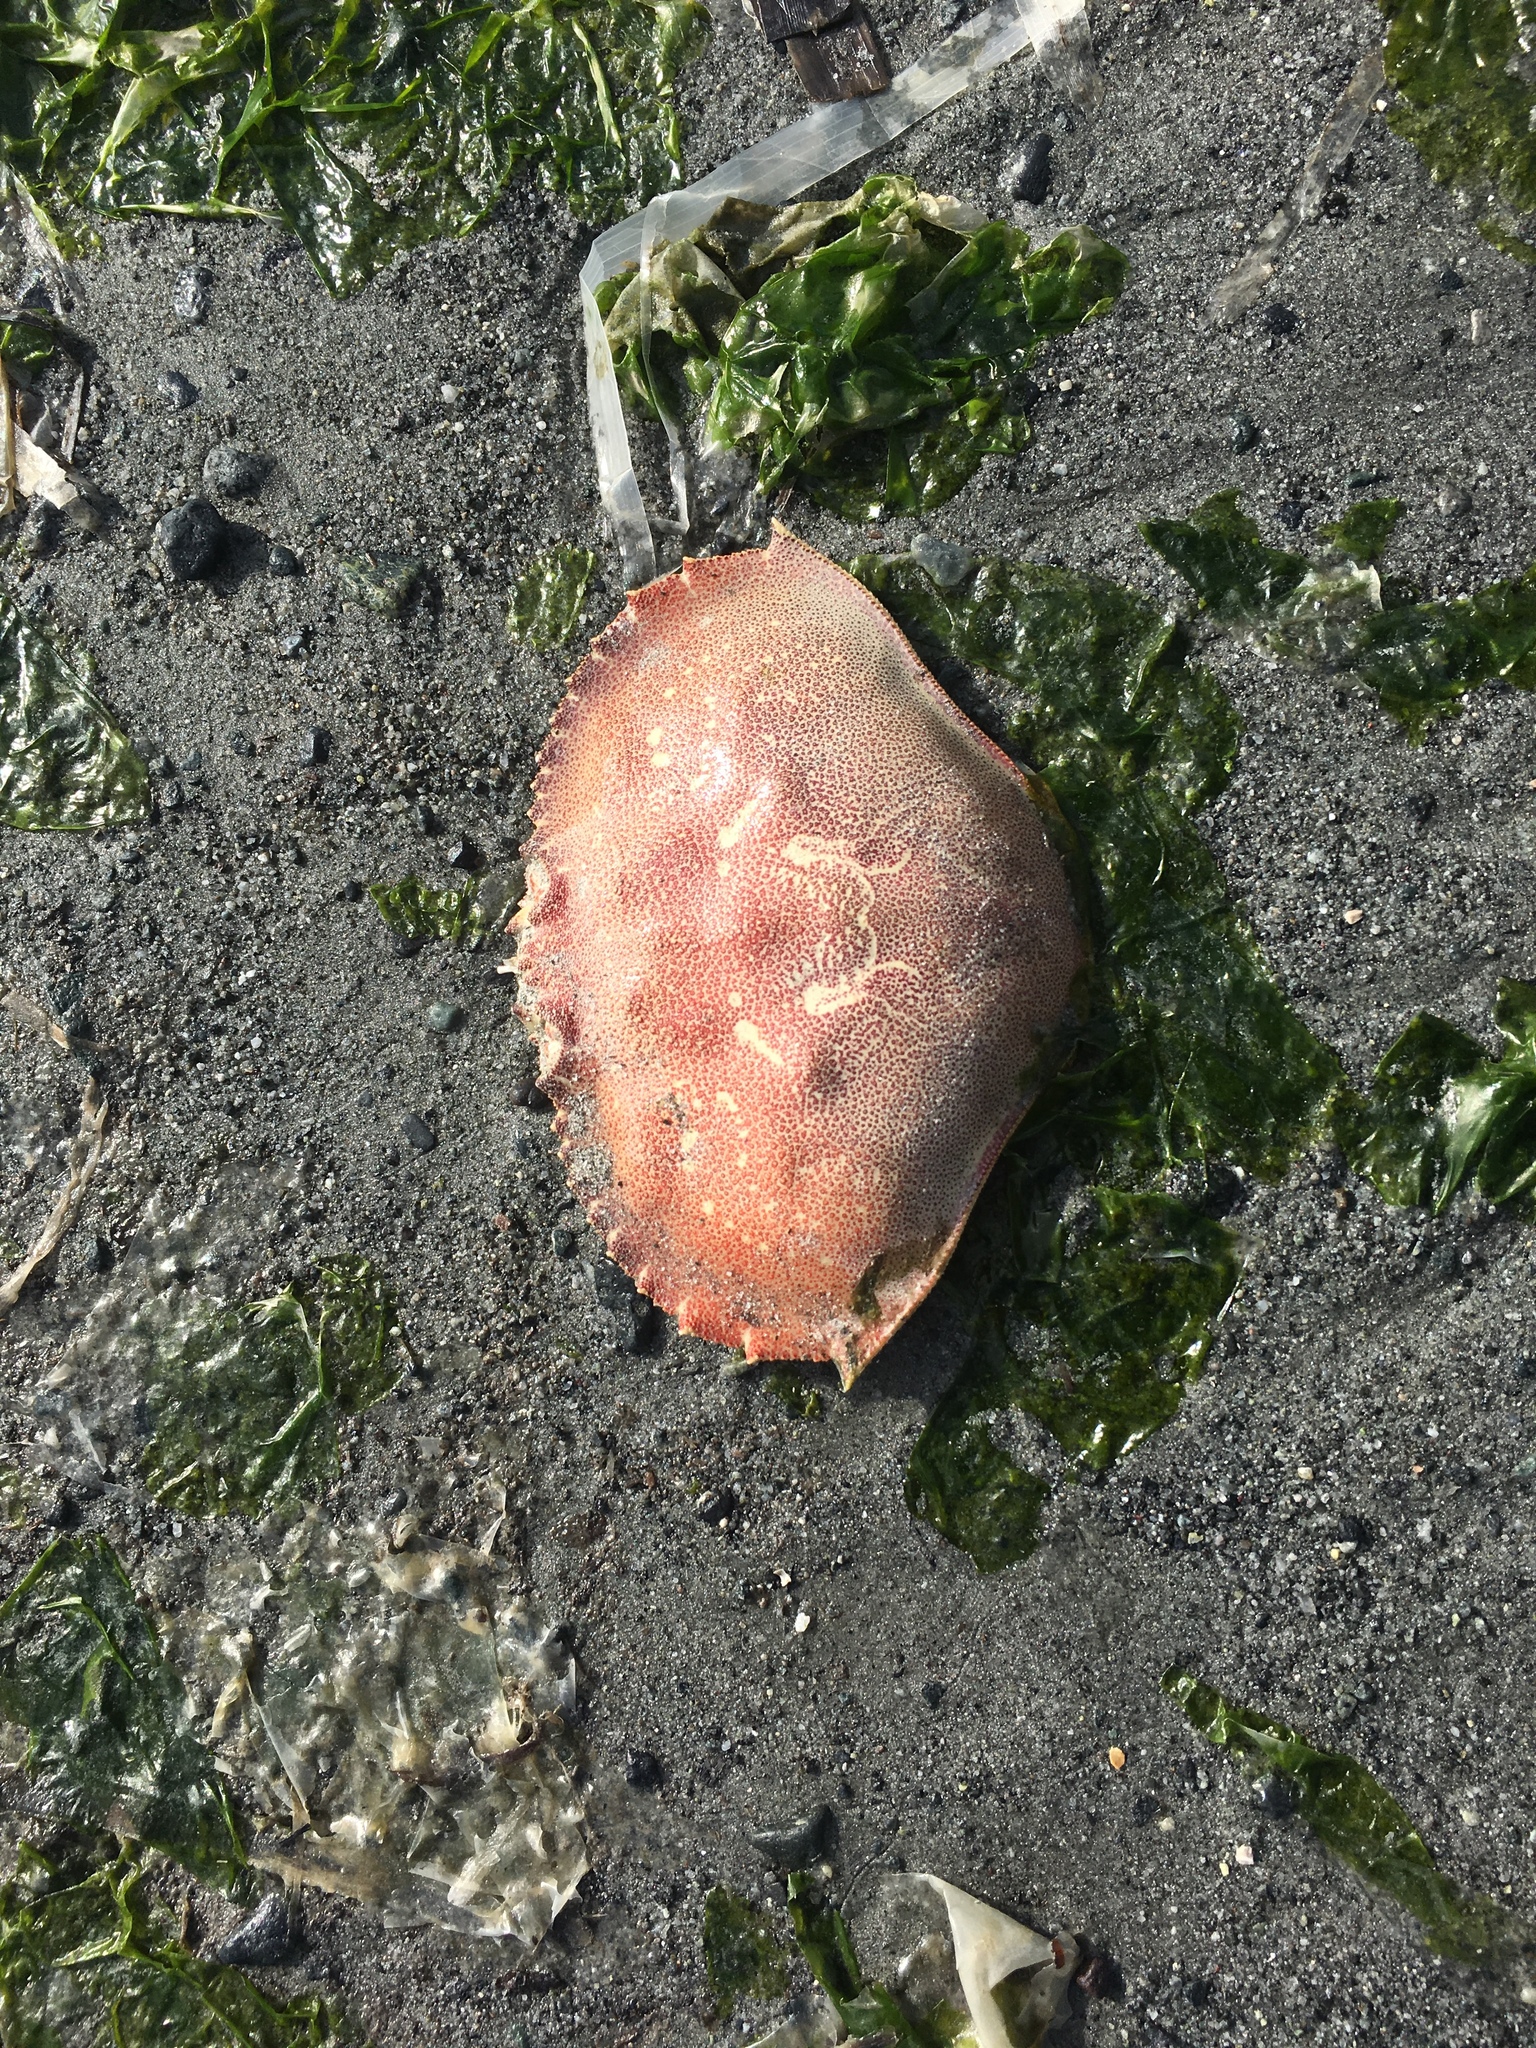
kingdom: Animalia
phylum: Arthropoda
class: Malacostraca
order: Decapoda
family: Cancridae
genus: Metacarcinus
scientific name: Metacarcinus magister
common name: Californian crab
